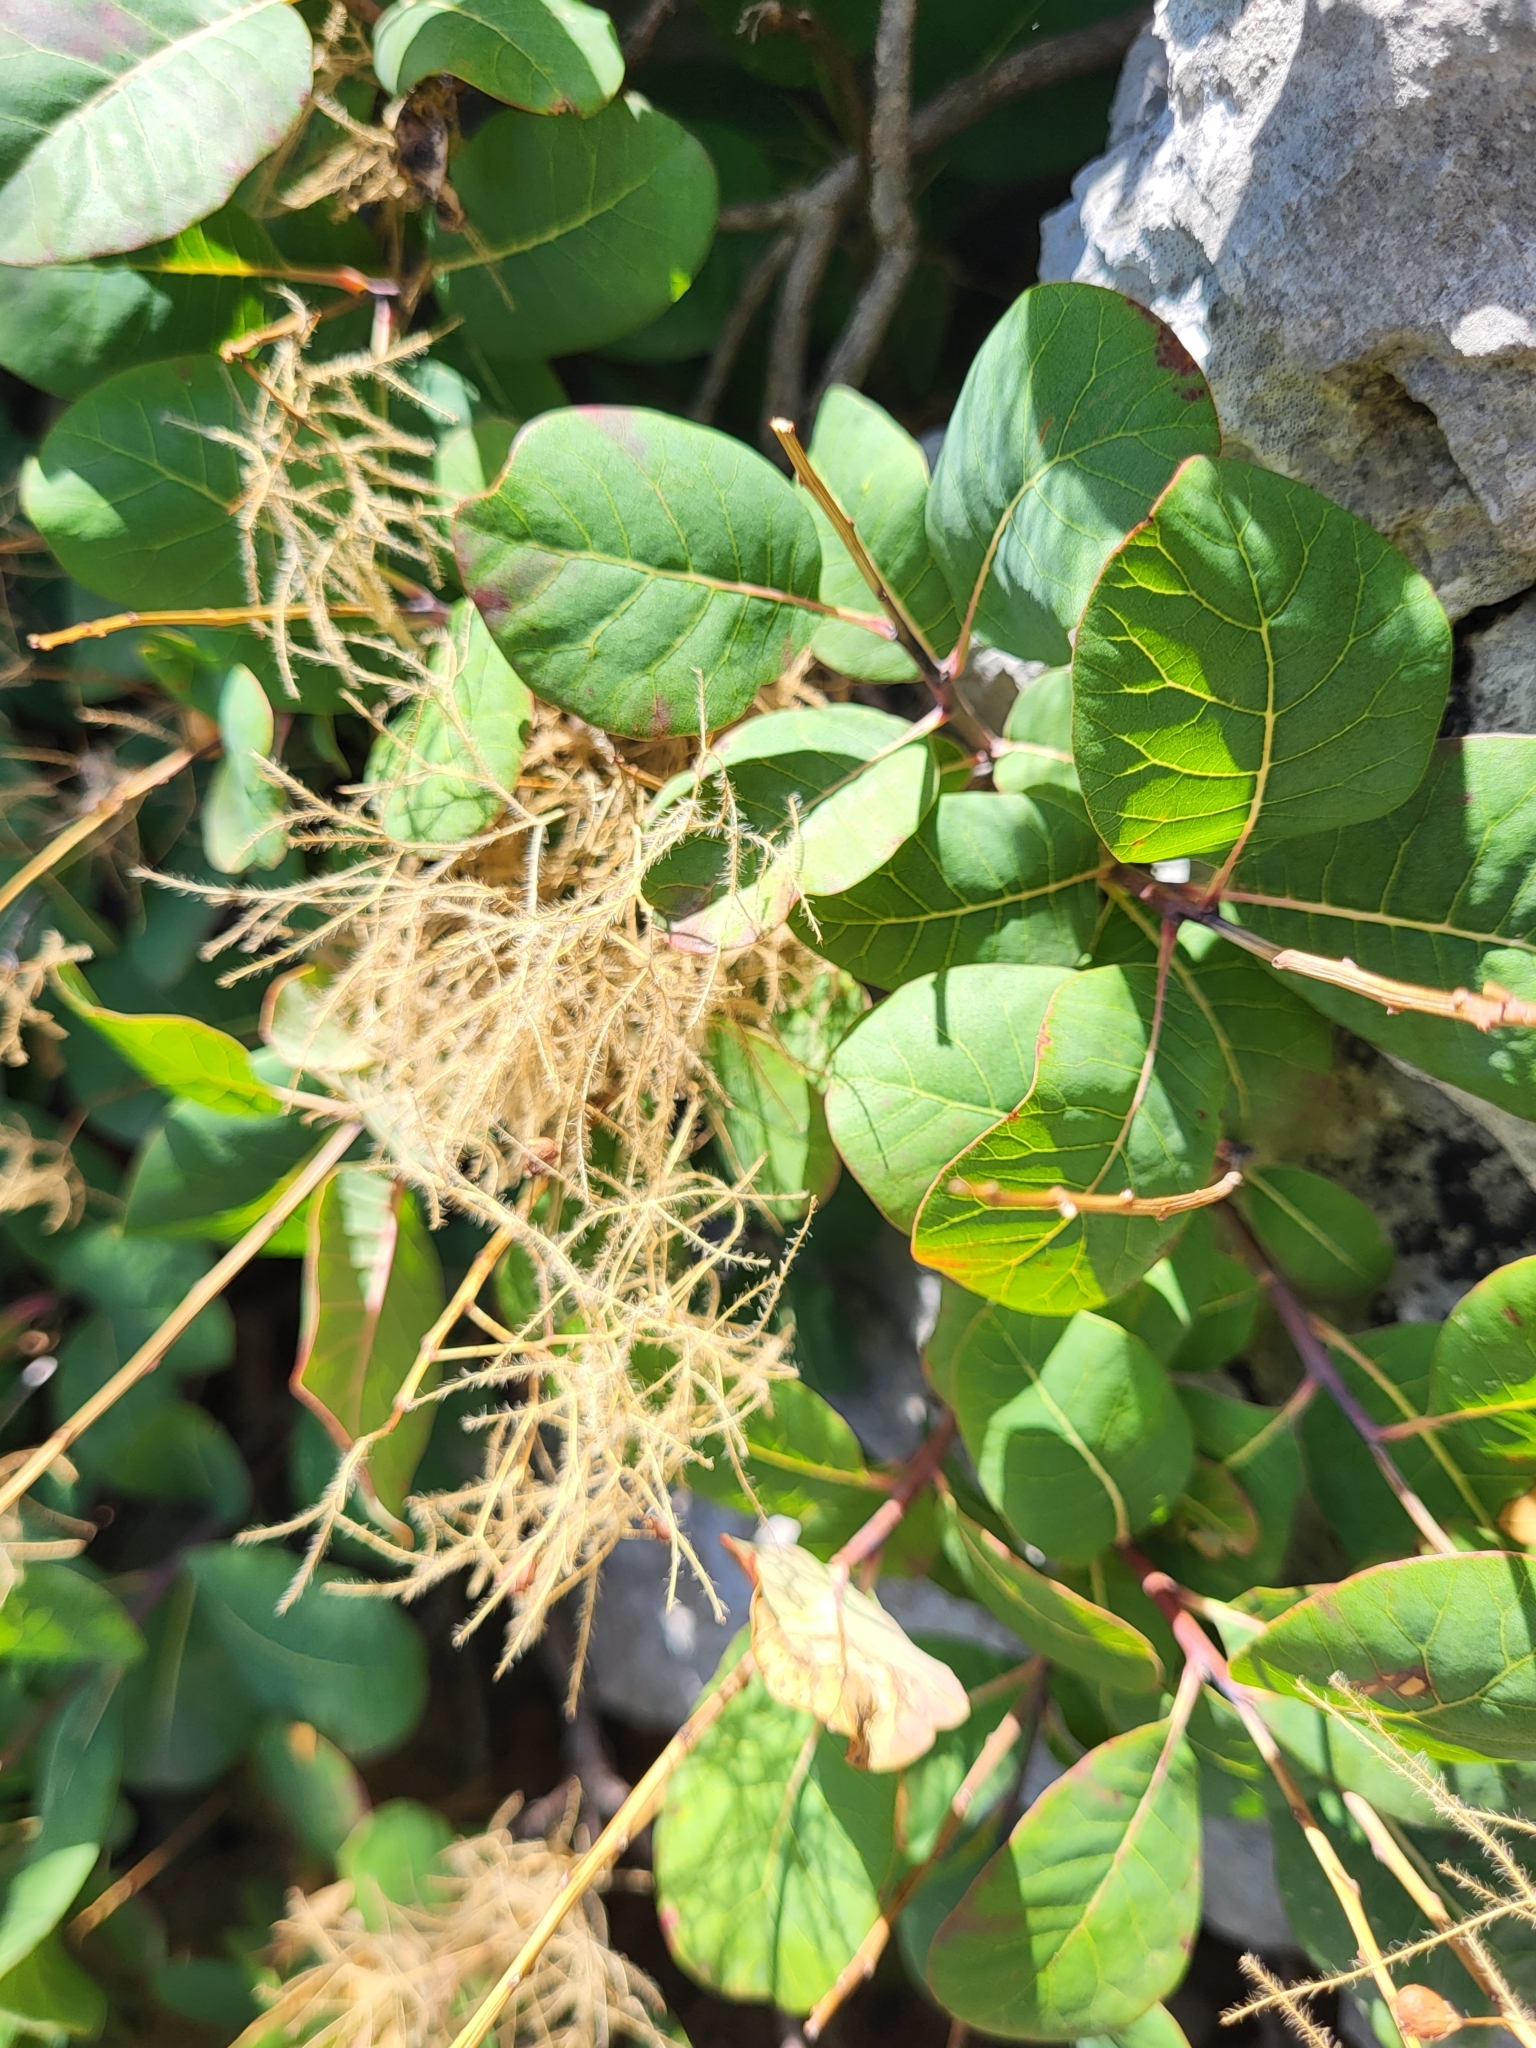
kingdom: Plantae
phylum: Tracheophyta
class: Magnoliopsida
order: Sapindales
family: Anacardiaceae
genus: Cotinus
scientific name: Cotinus coggygria
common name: Smoke-tree
